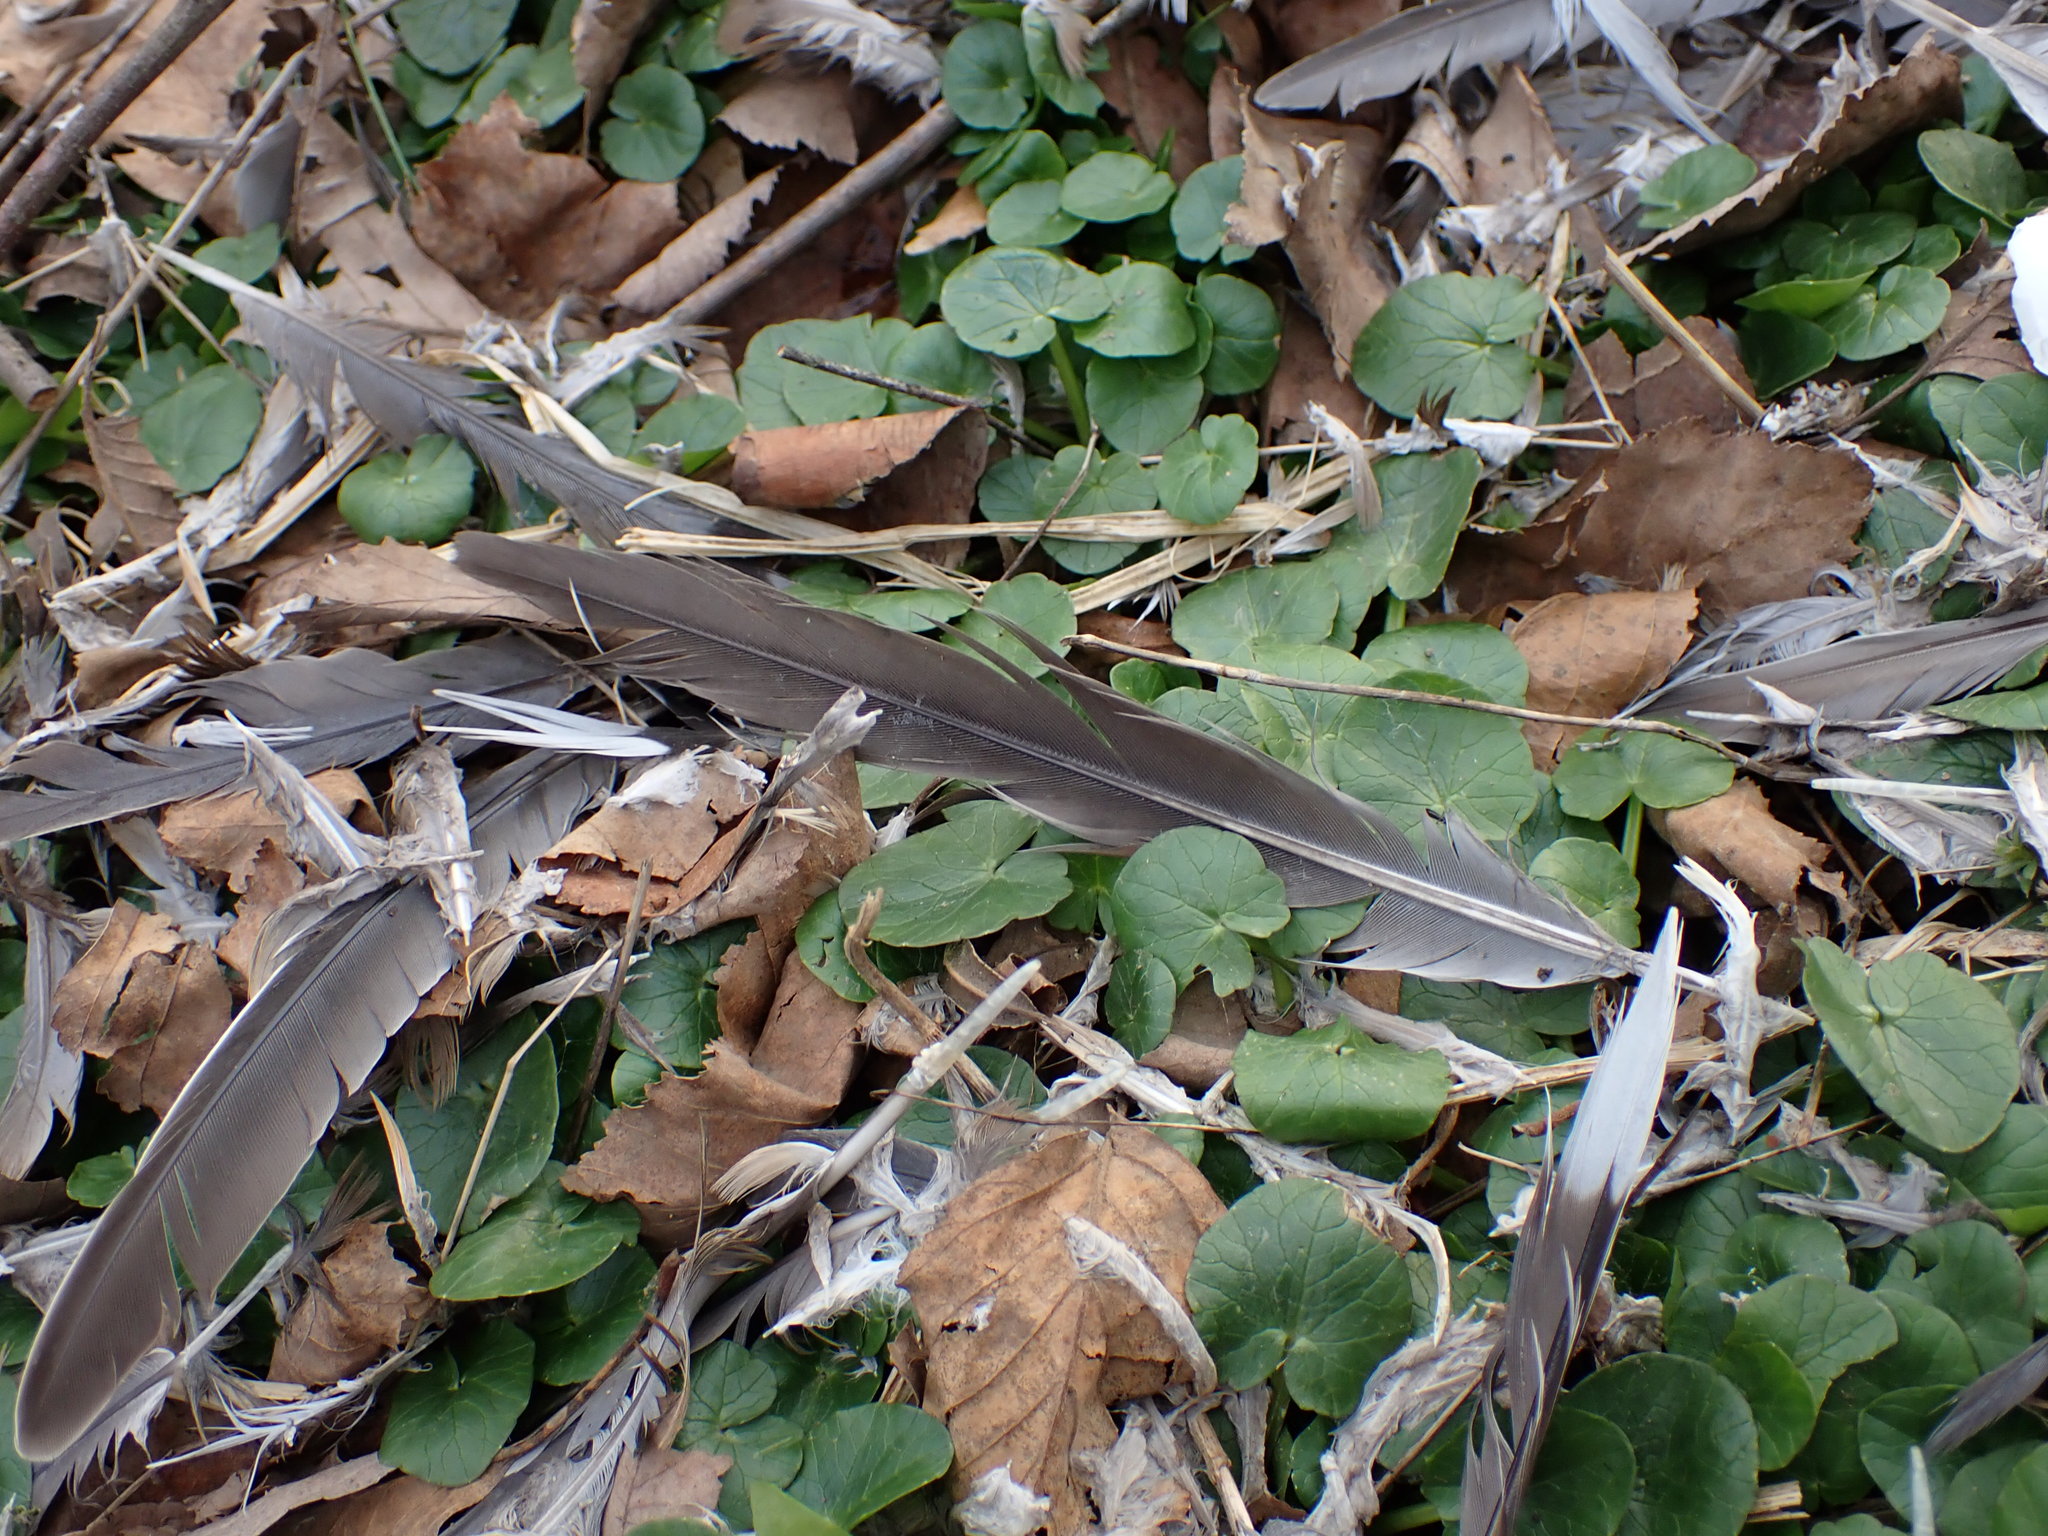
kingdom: Animalia
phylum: Chordata
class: Aves
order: Columbiformes
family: Columbidae
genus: Zenaida
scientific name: Zenaida macroura
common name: Mourning dove
